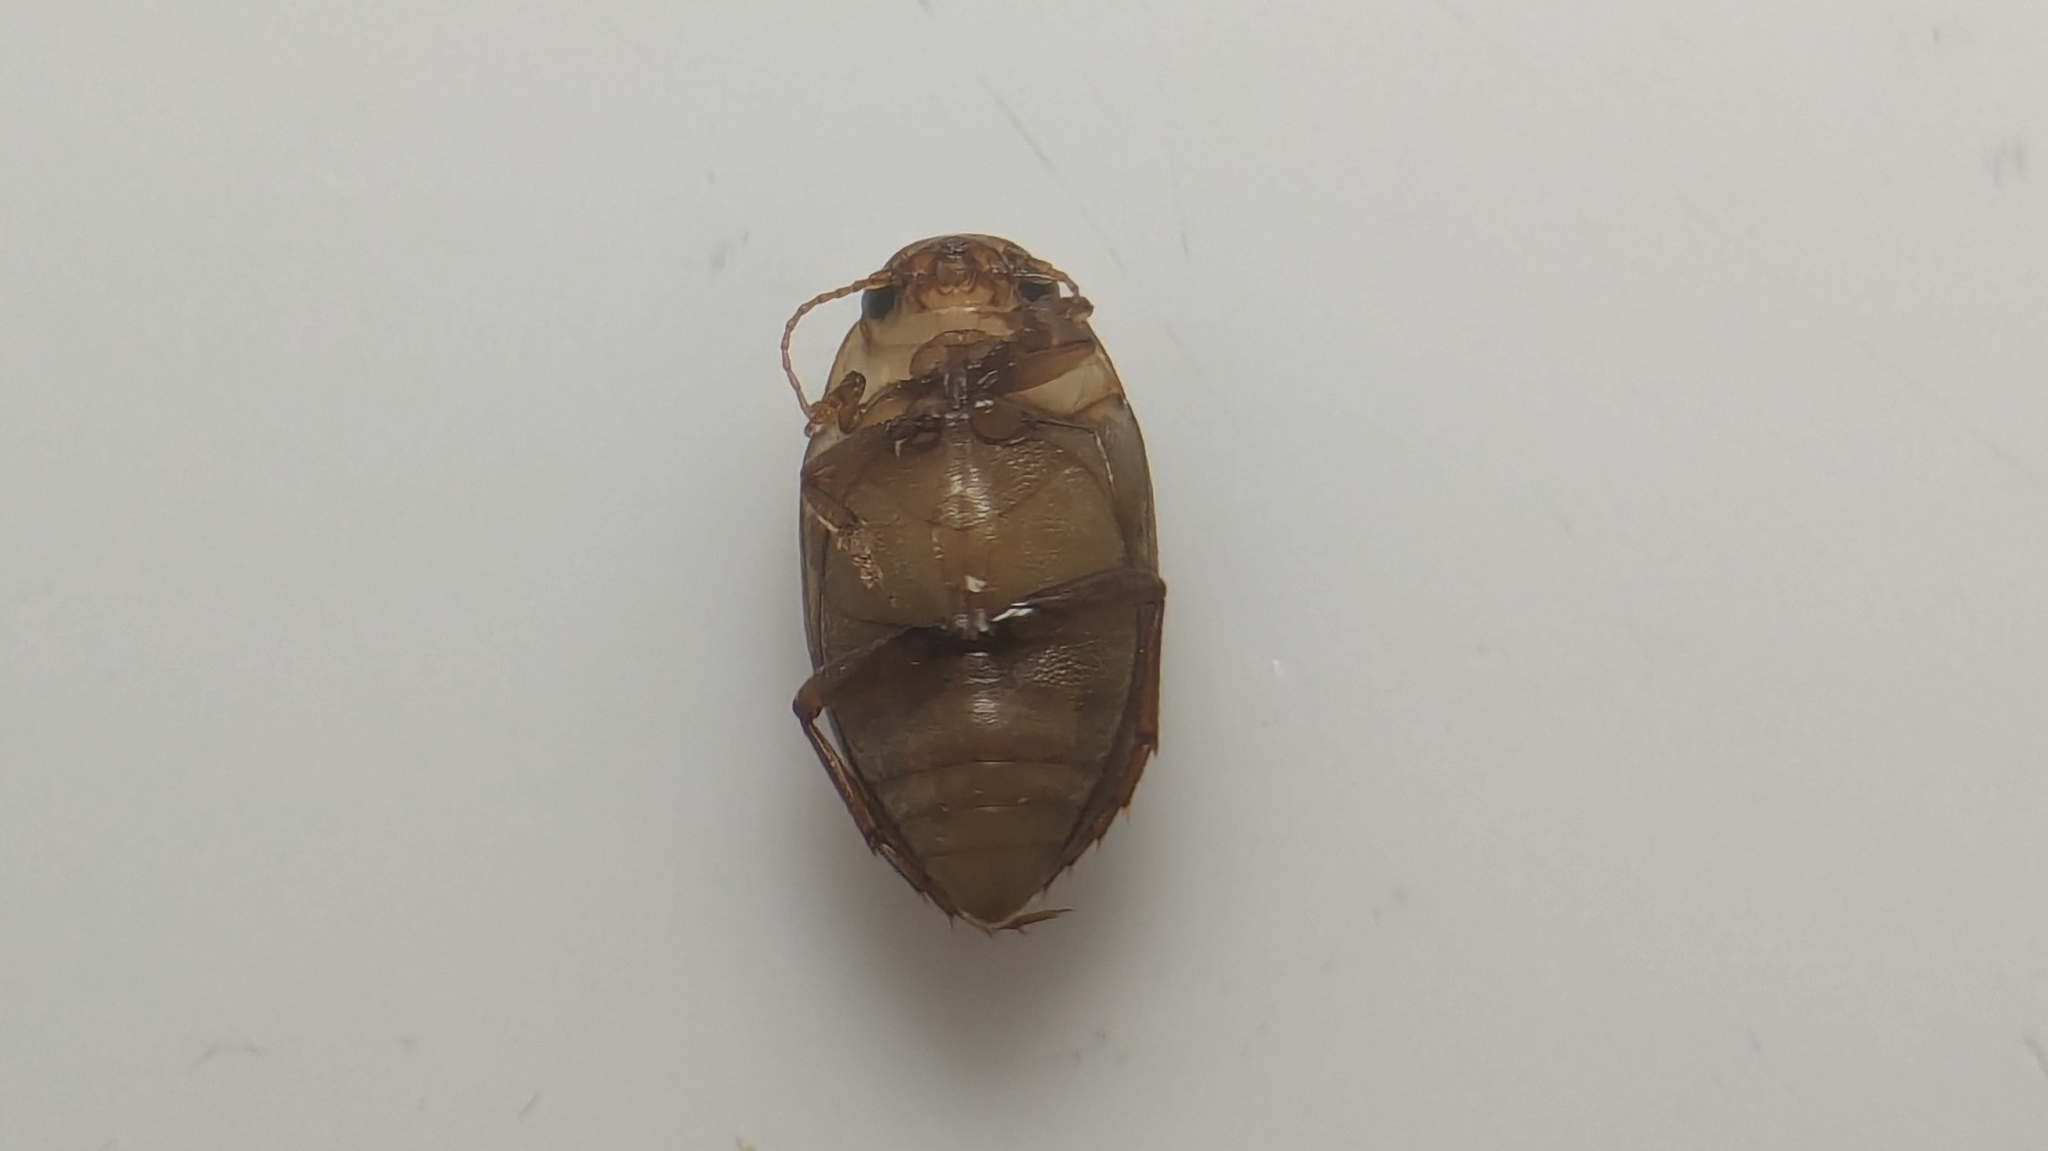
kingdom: Animalia
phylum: Arthropoda
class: Insecta
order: Coleoptera
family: Dytiscidae
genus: Neoporus
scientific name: Neoporus dimidiatus
